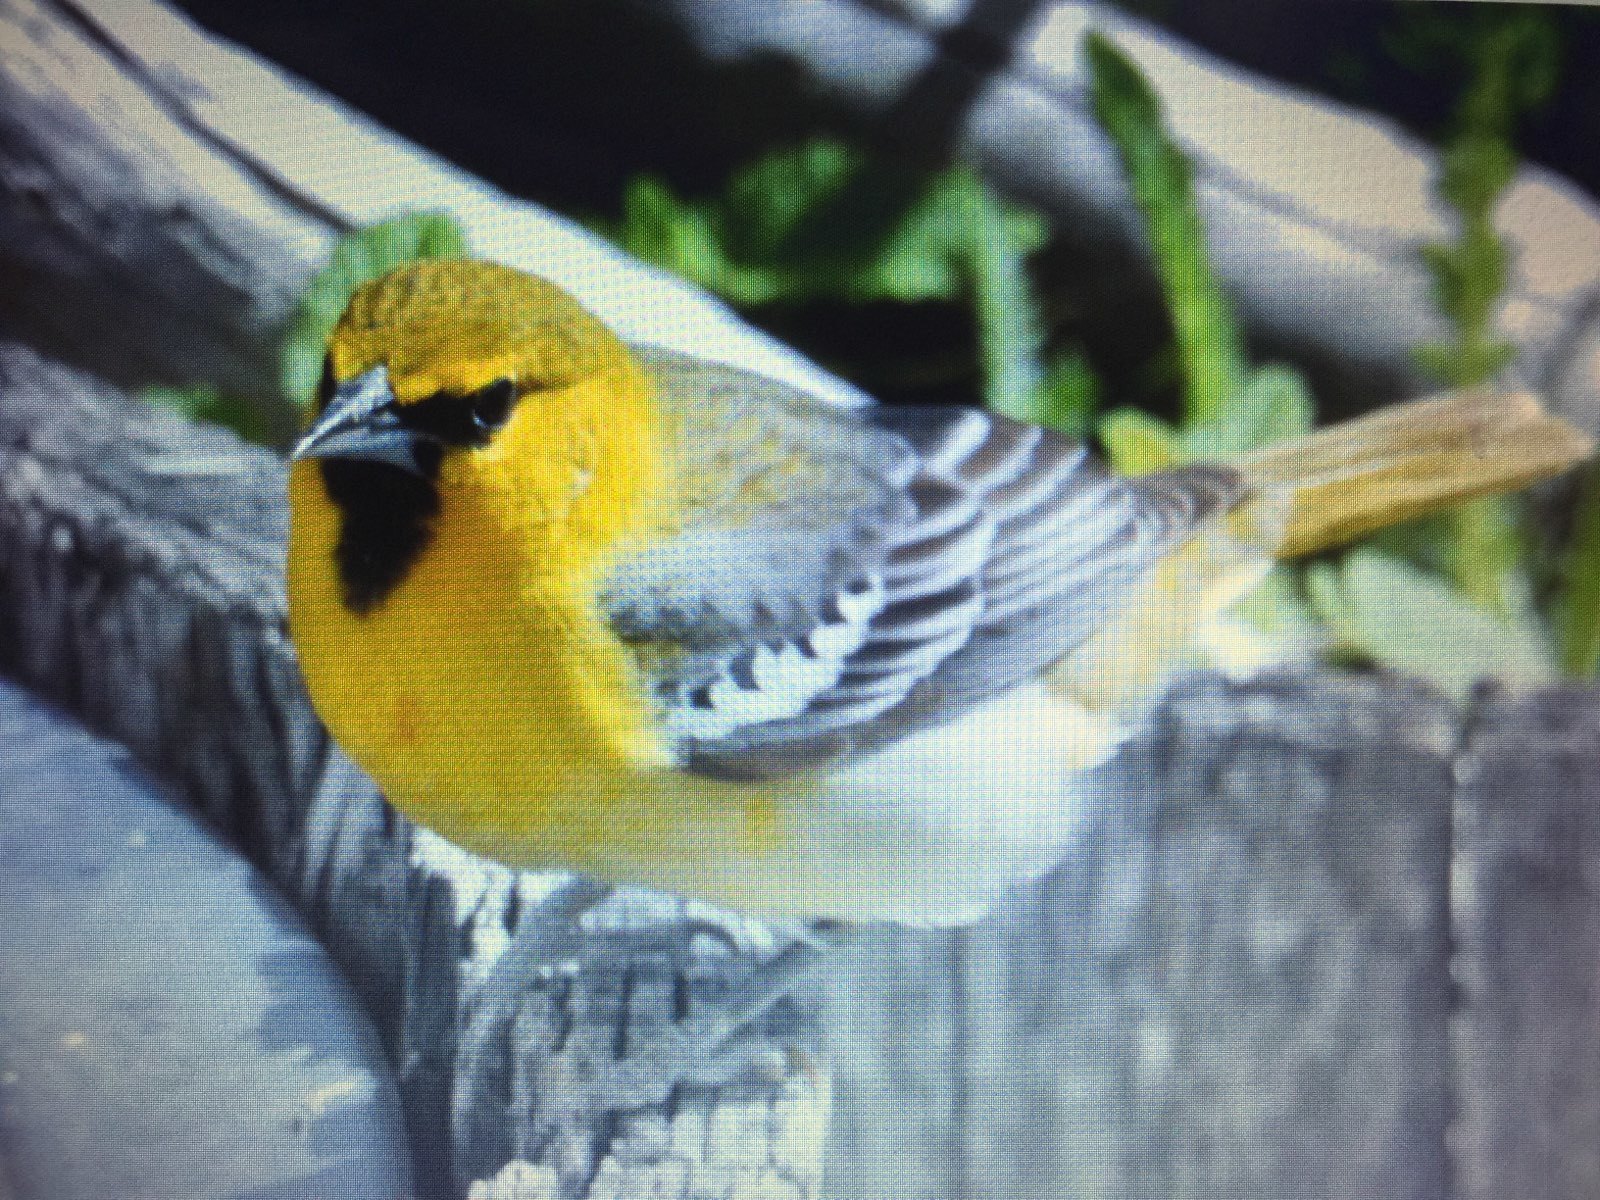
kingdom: Animalia
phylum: Chordata
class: Aves
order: Passeriformes
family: Icteridae
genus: Icterus
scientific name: Icterus bullockii
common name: Bullock's oriole
